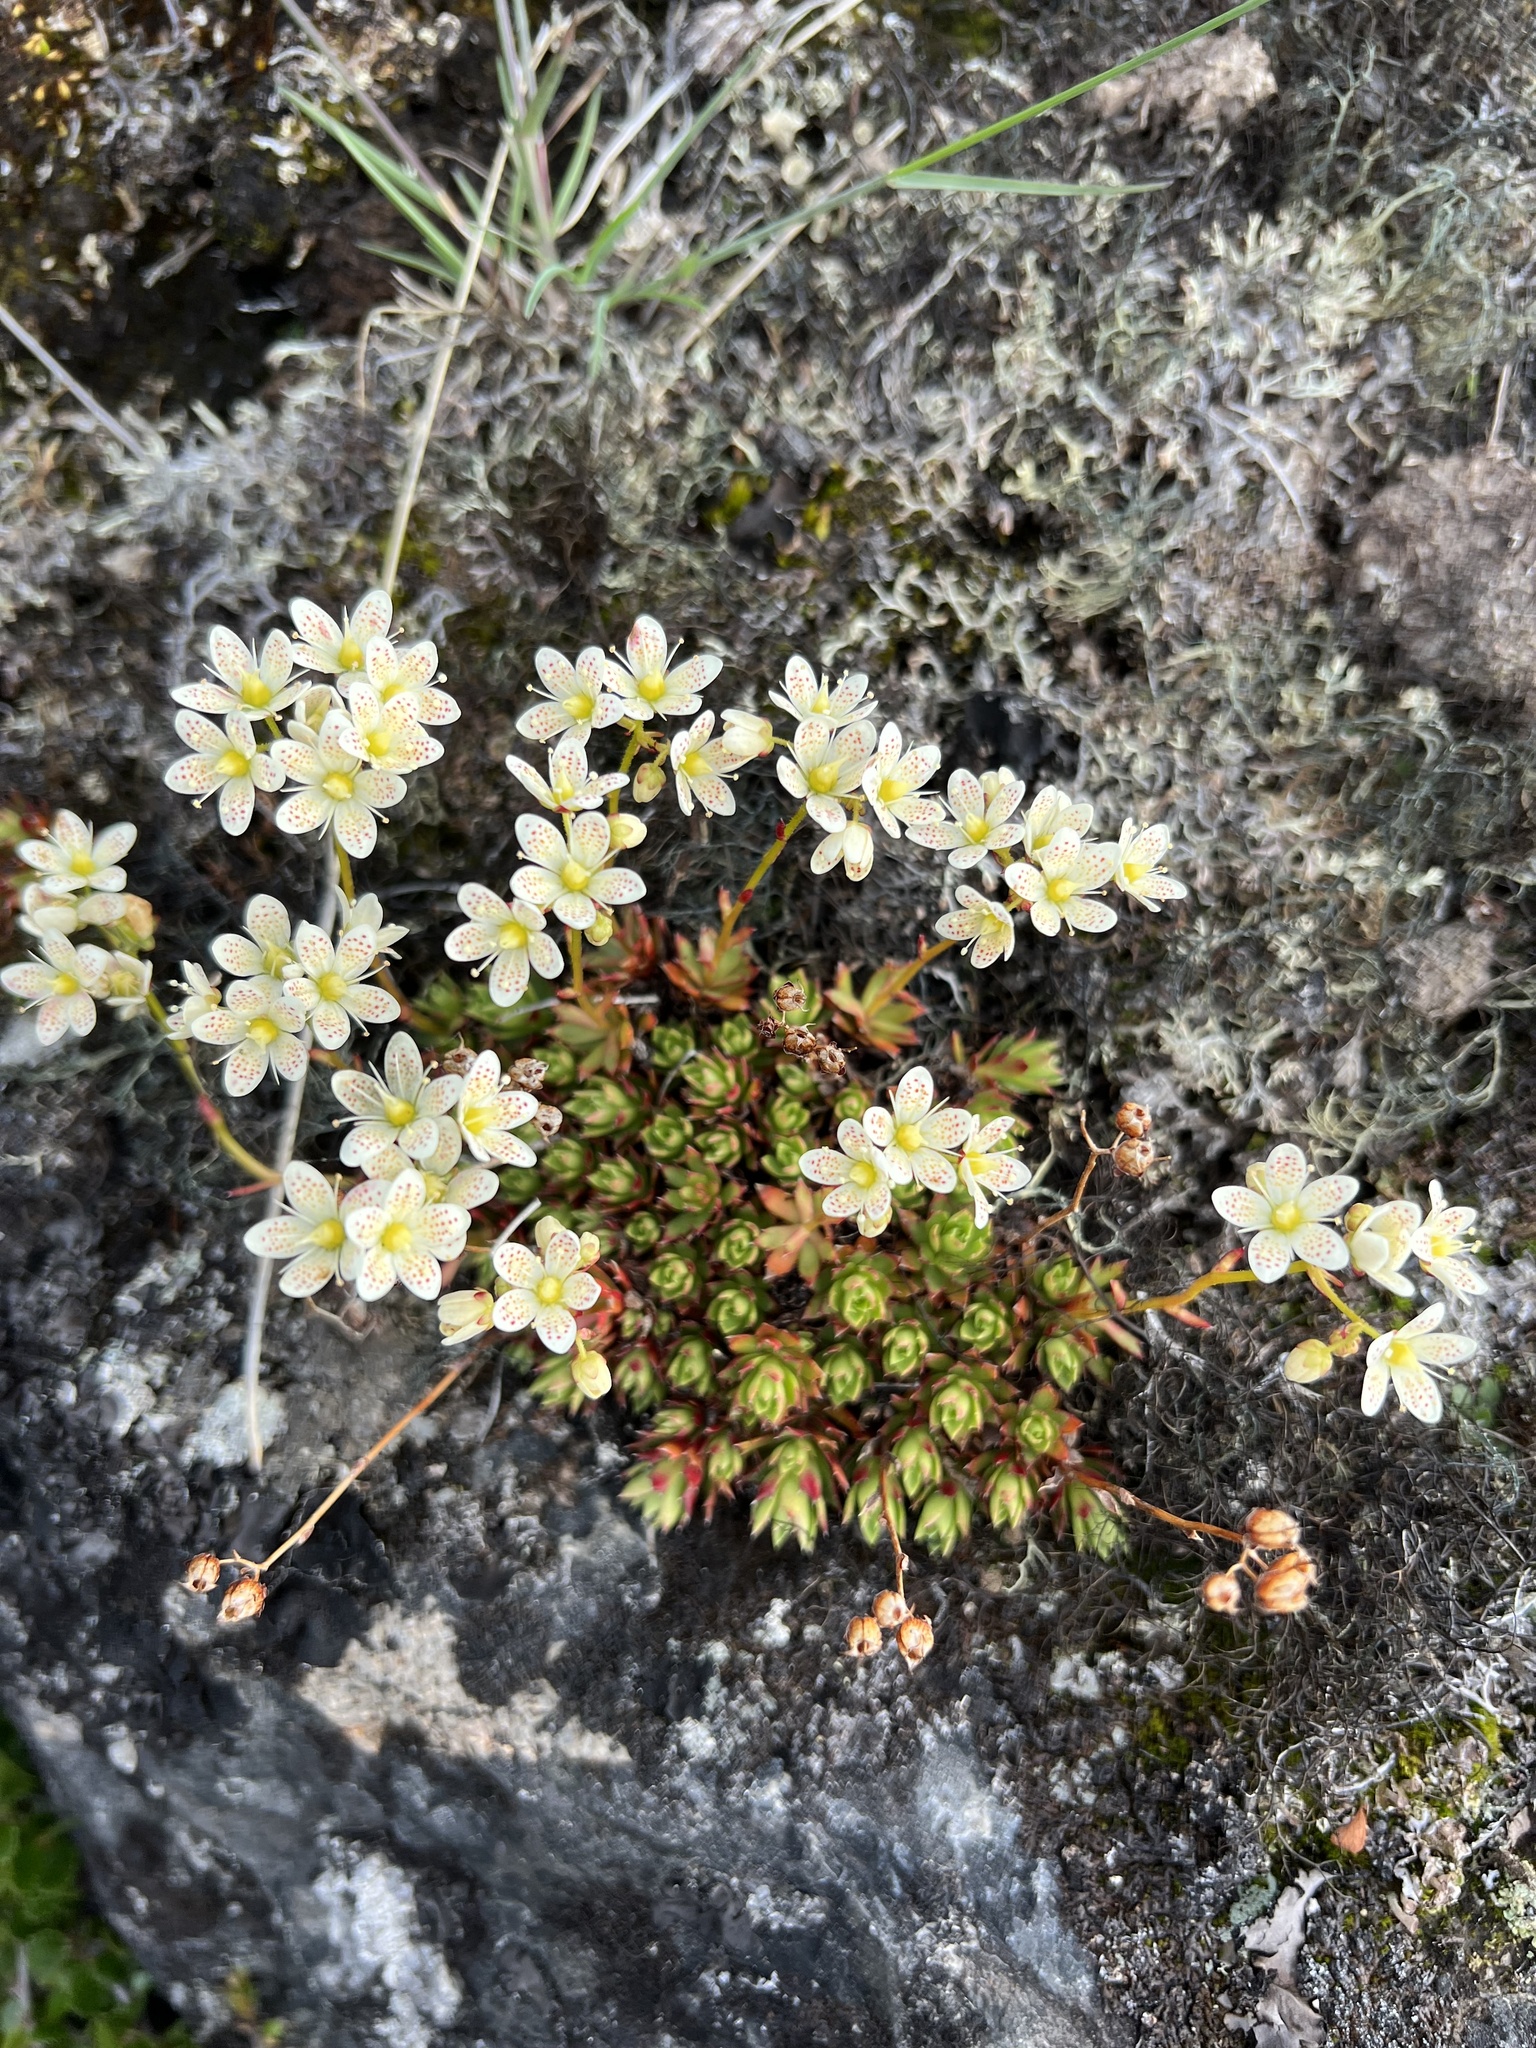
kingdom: Plantae
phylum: Tracheophyta
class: Magnoliopsida
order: Saxifragales
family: Saxifragaceae
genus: Saxifraga
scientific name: Saxifraga tricuspidata
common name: Prickly saxifrage
